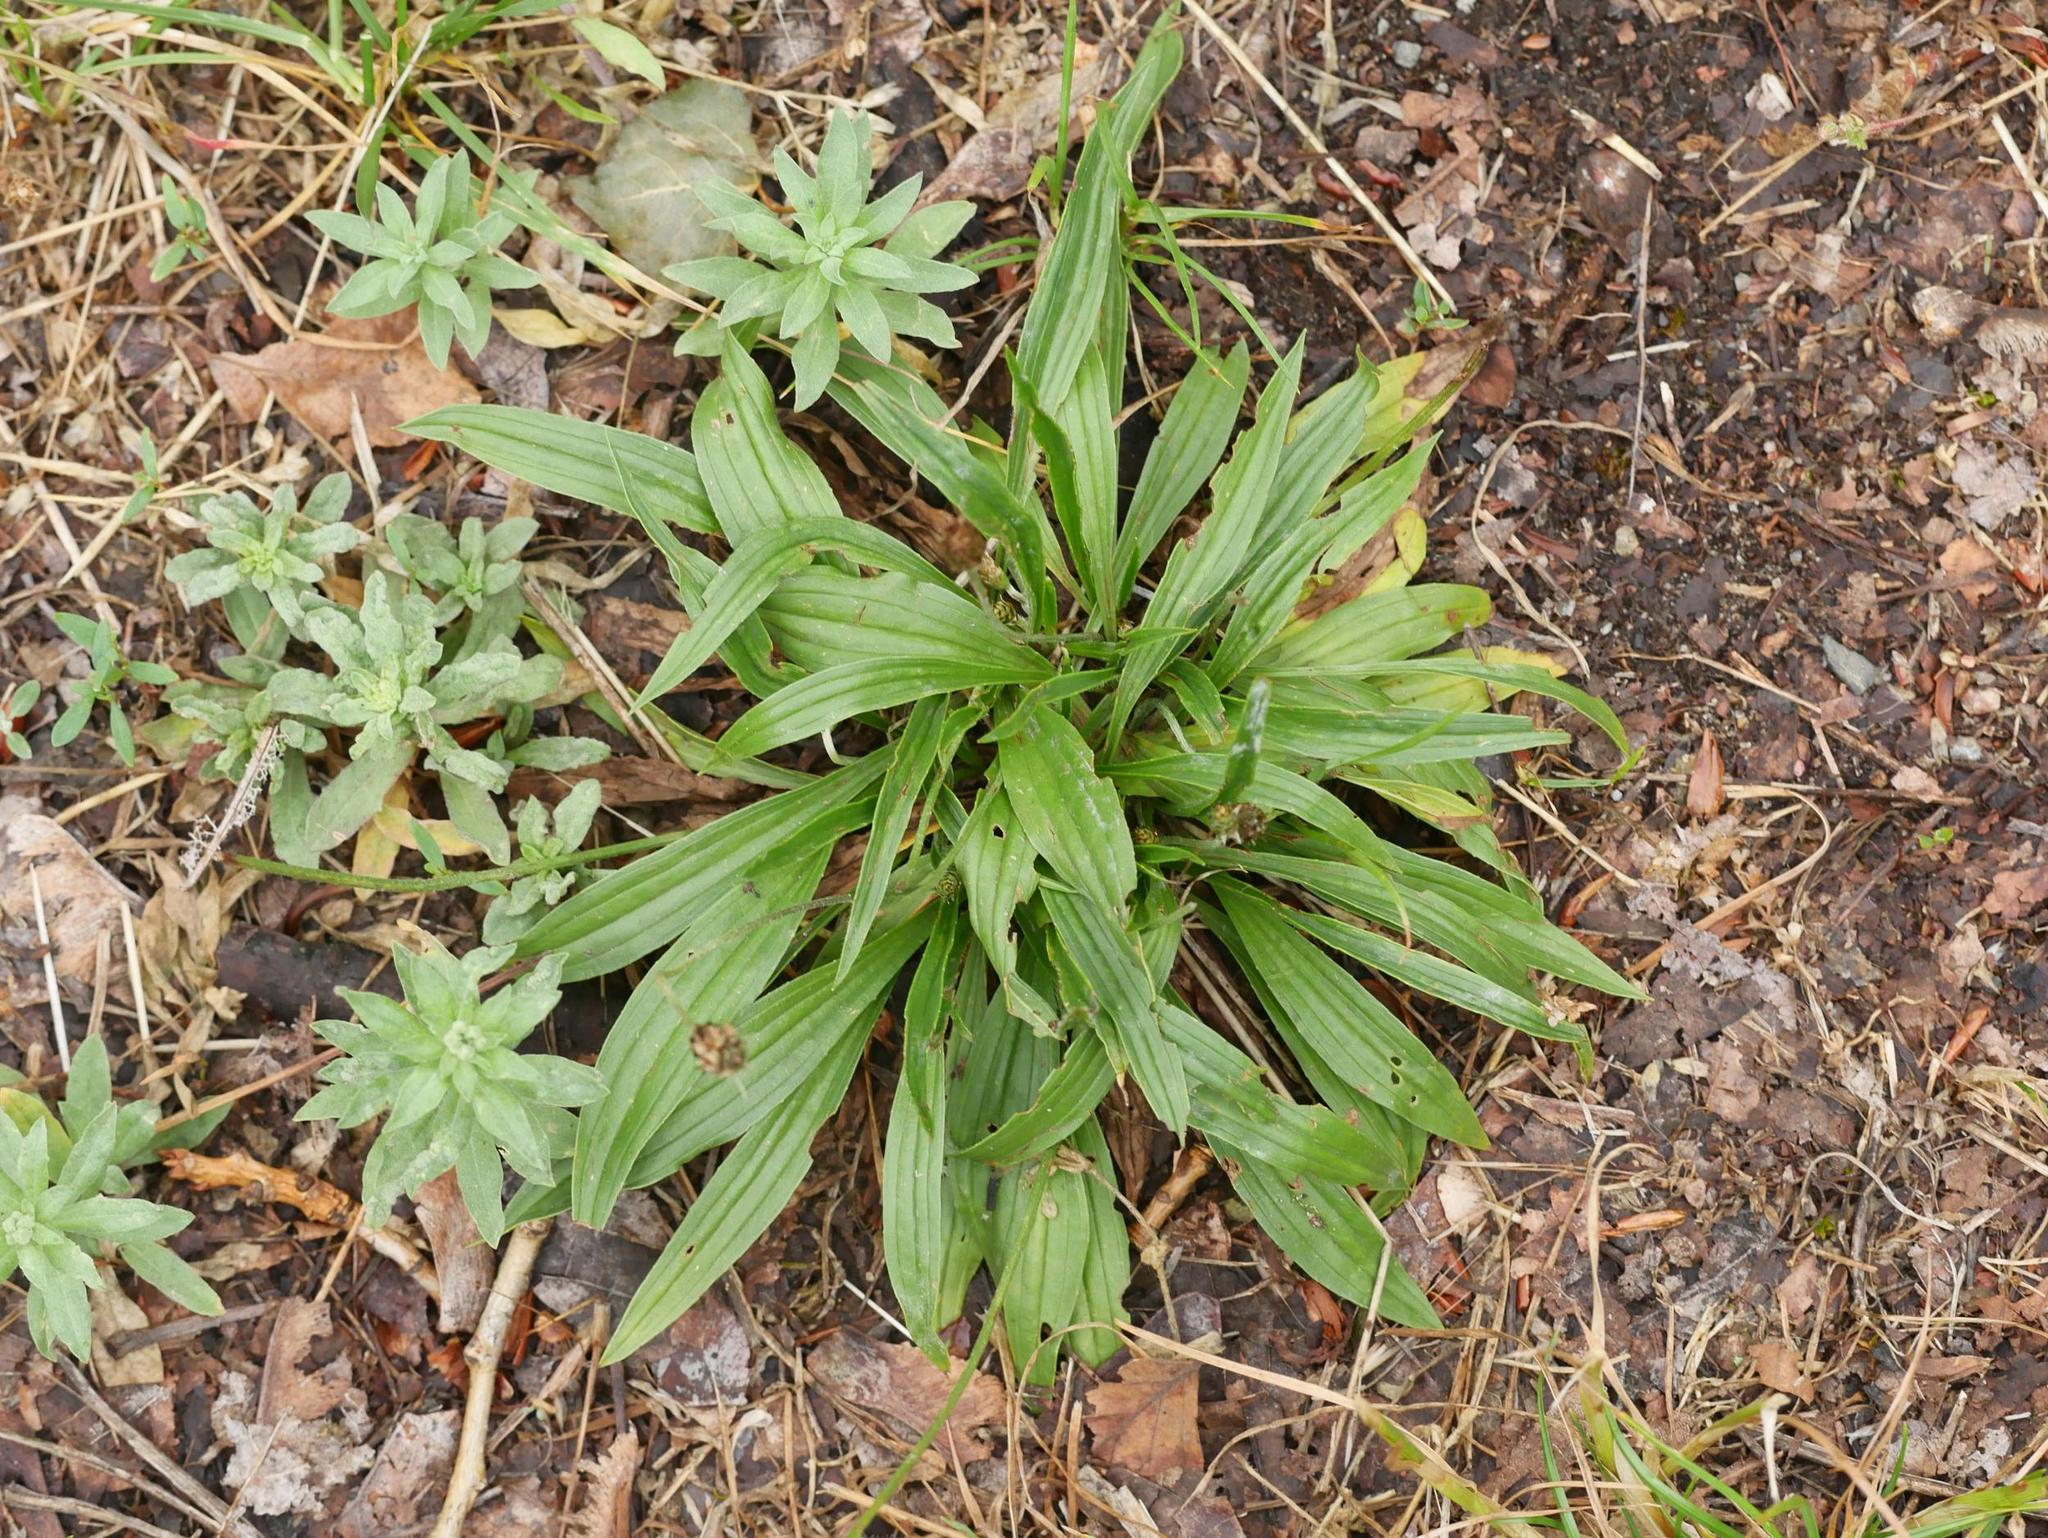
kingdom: Plantae
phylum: Tracheophyta
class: Magnoliopsida
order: Lamiales
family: Plantaginaceae
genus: Plantago
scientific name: Plantago lanceolata
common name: Ribwort plantain
